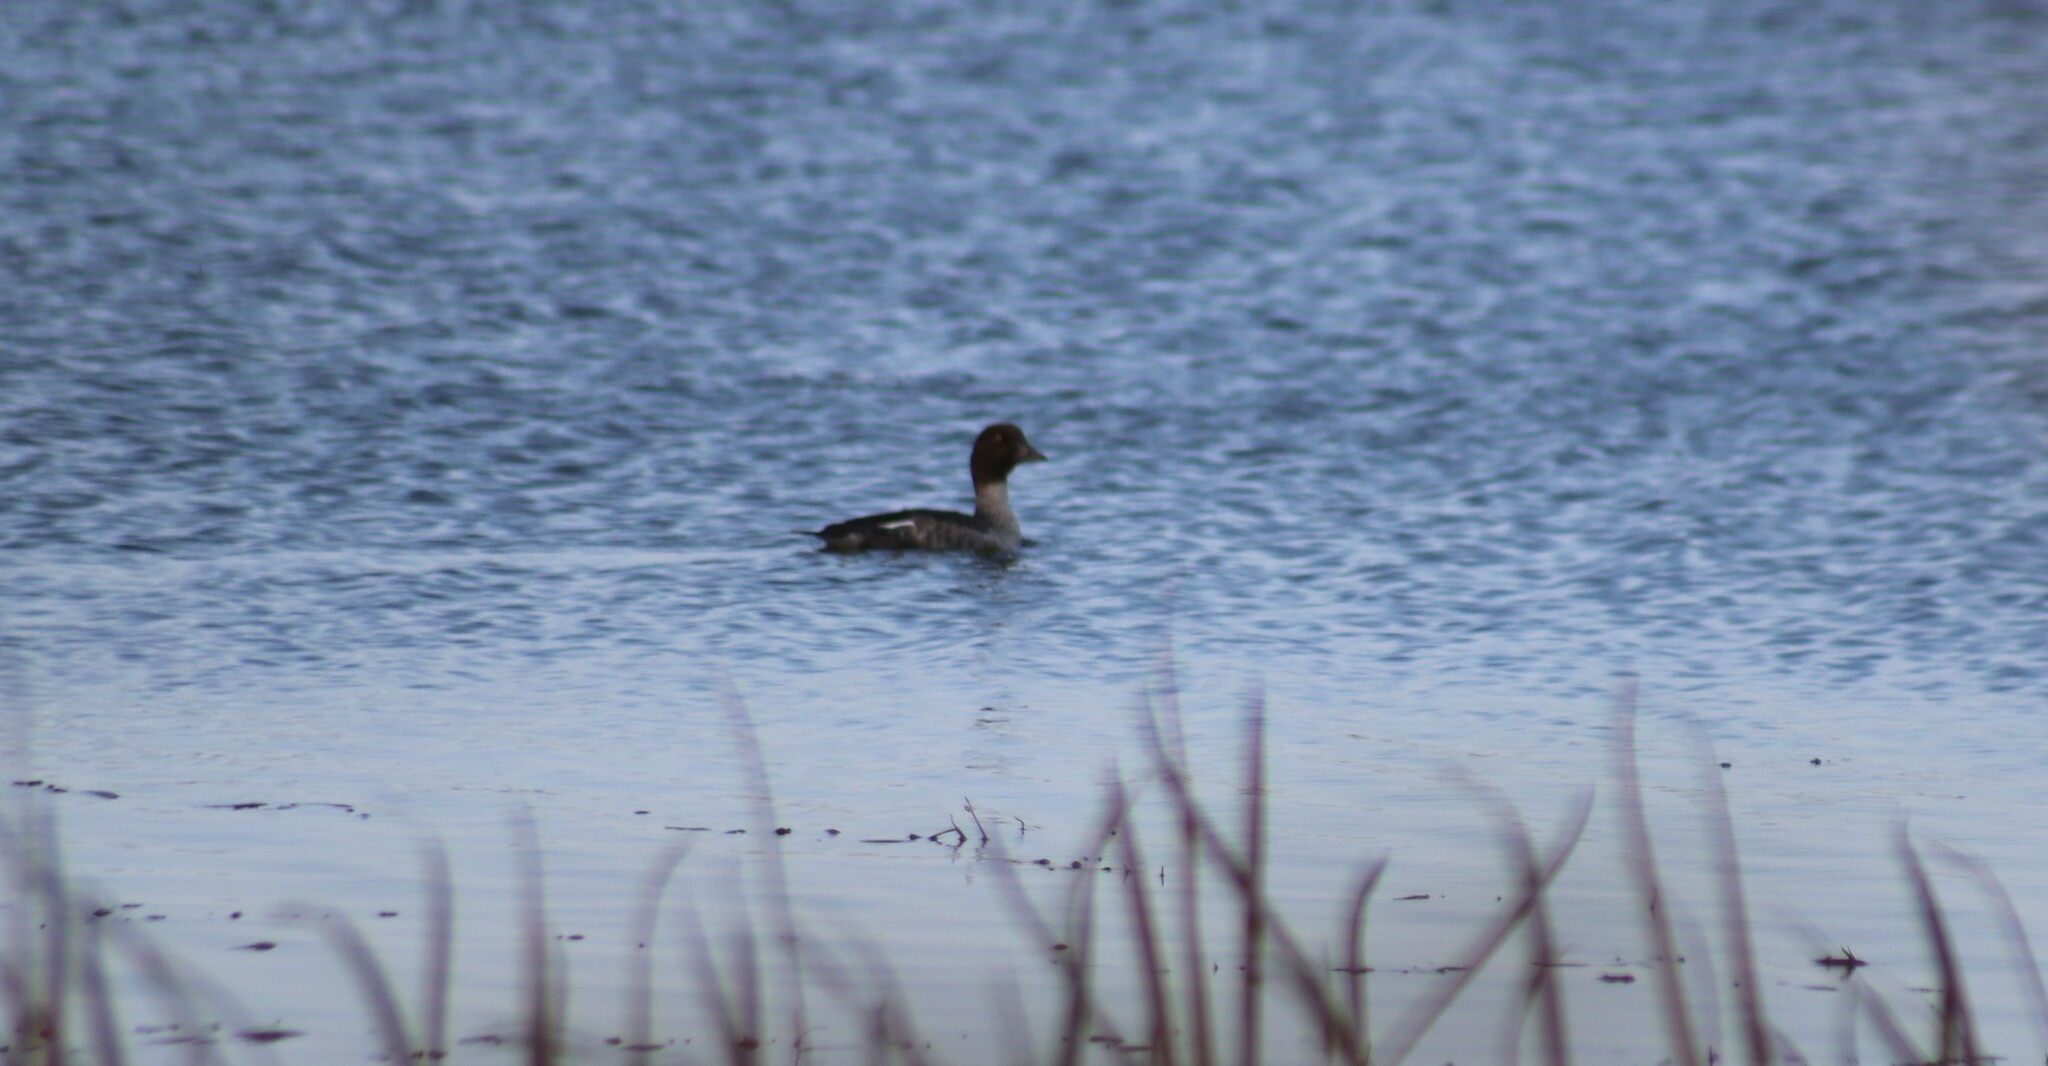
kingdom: Animalia
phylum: Chordata
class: Aves
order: Anseriformes
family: Anatidae
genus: Bucephala
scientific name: Bucephala clangula
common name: Common goldeneye
